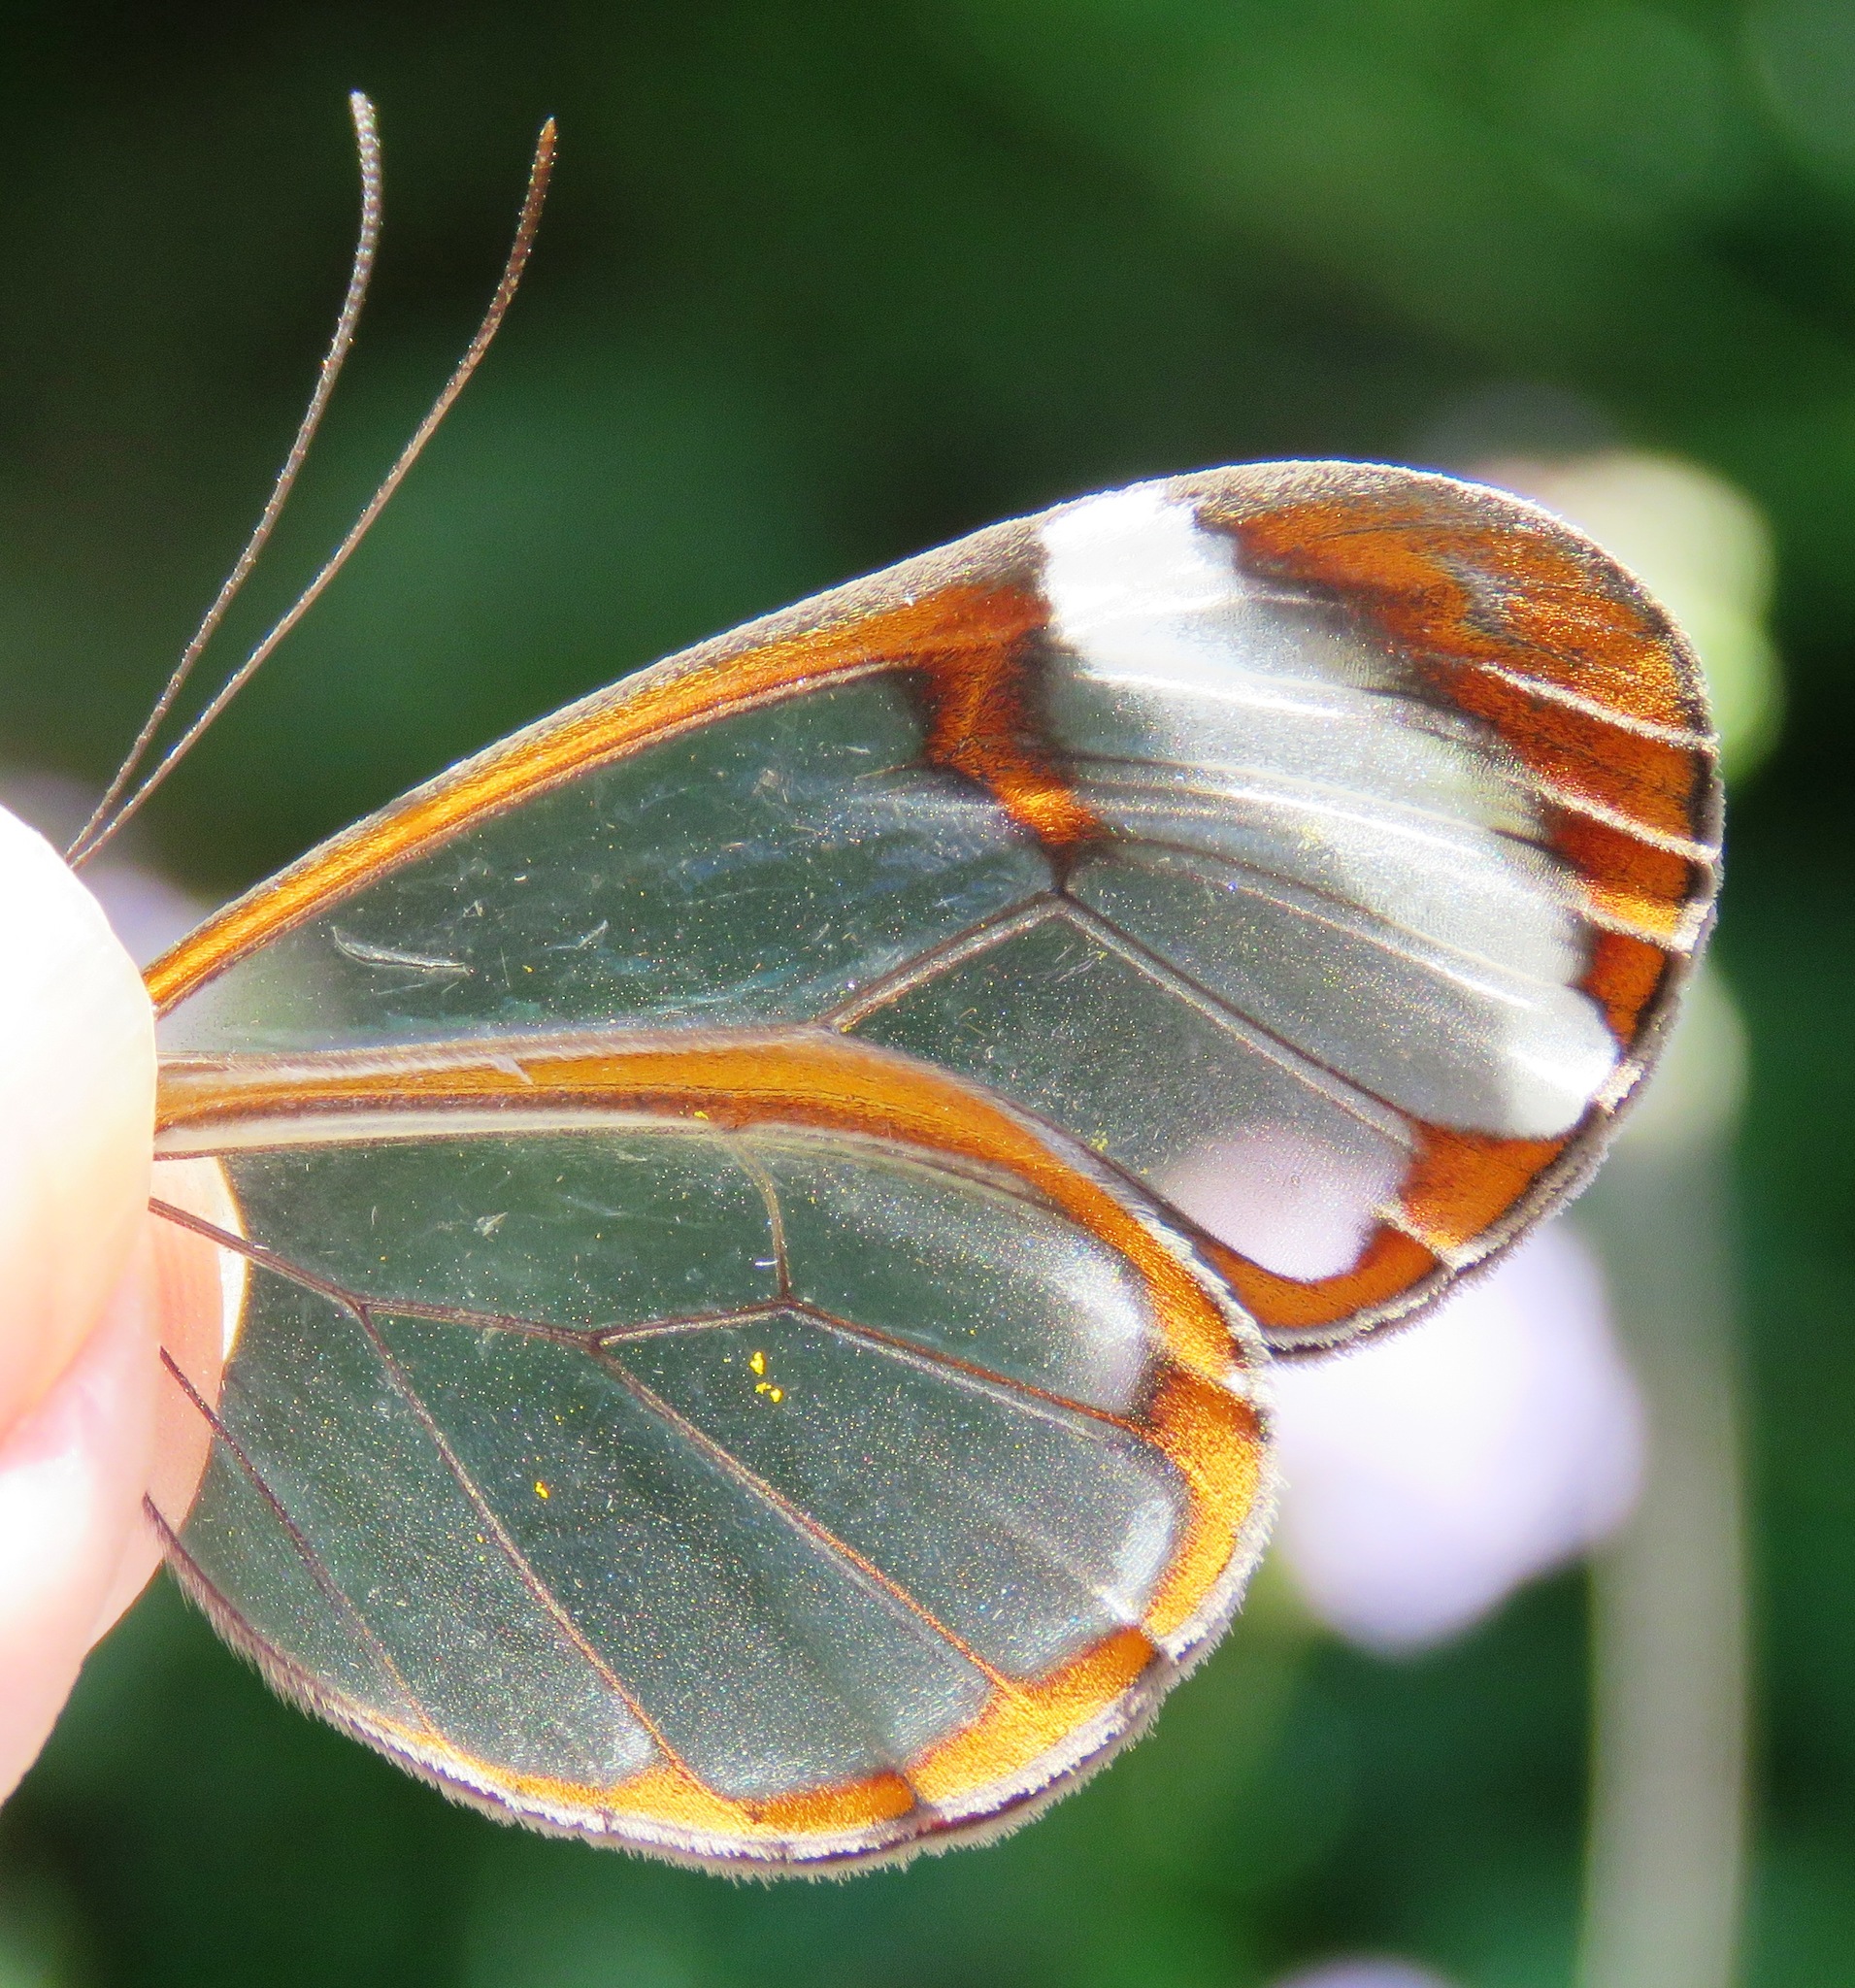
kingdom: Animalia
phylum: Arthropoda
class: Insecta
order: Lepidoptera
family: Nymphalidae
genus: Greta
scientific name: Greta morgane
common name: Thick-tipped greta
